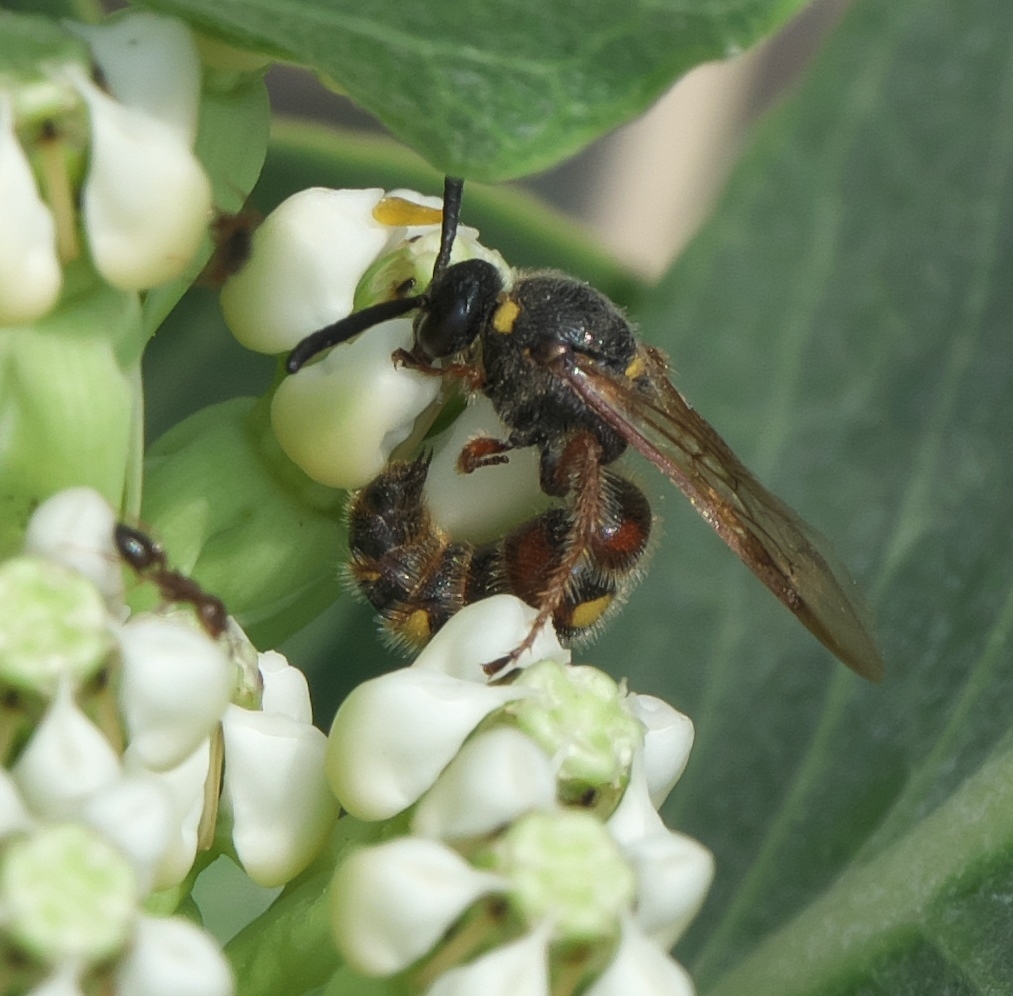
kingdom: Animalia
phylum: Arthropoda
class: Insecta
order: Hymenoptera
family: Scoliidae
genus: Scolia
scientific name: Scolia nobilitata
